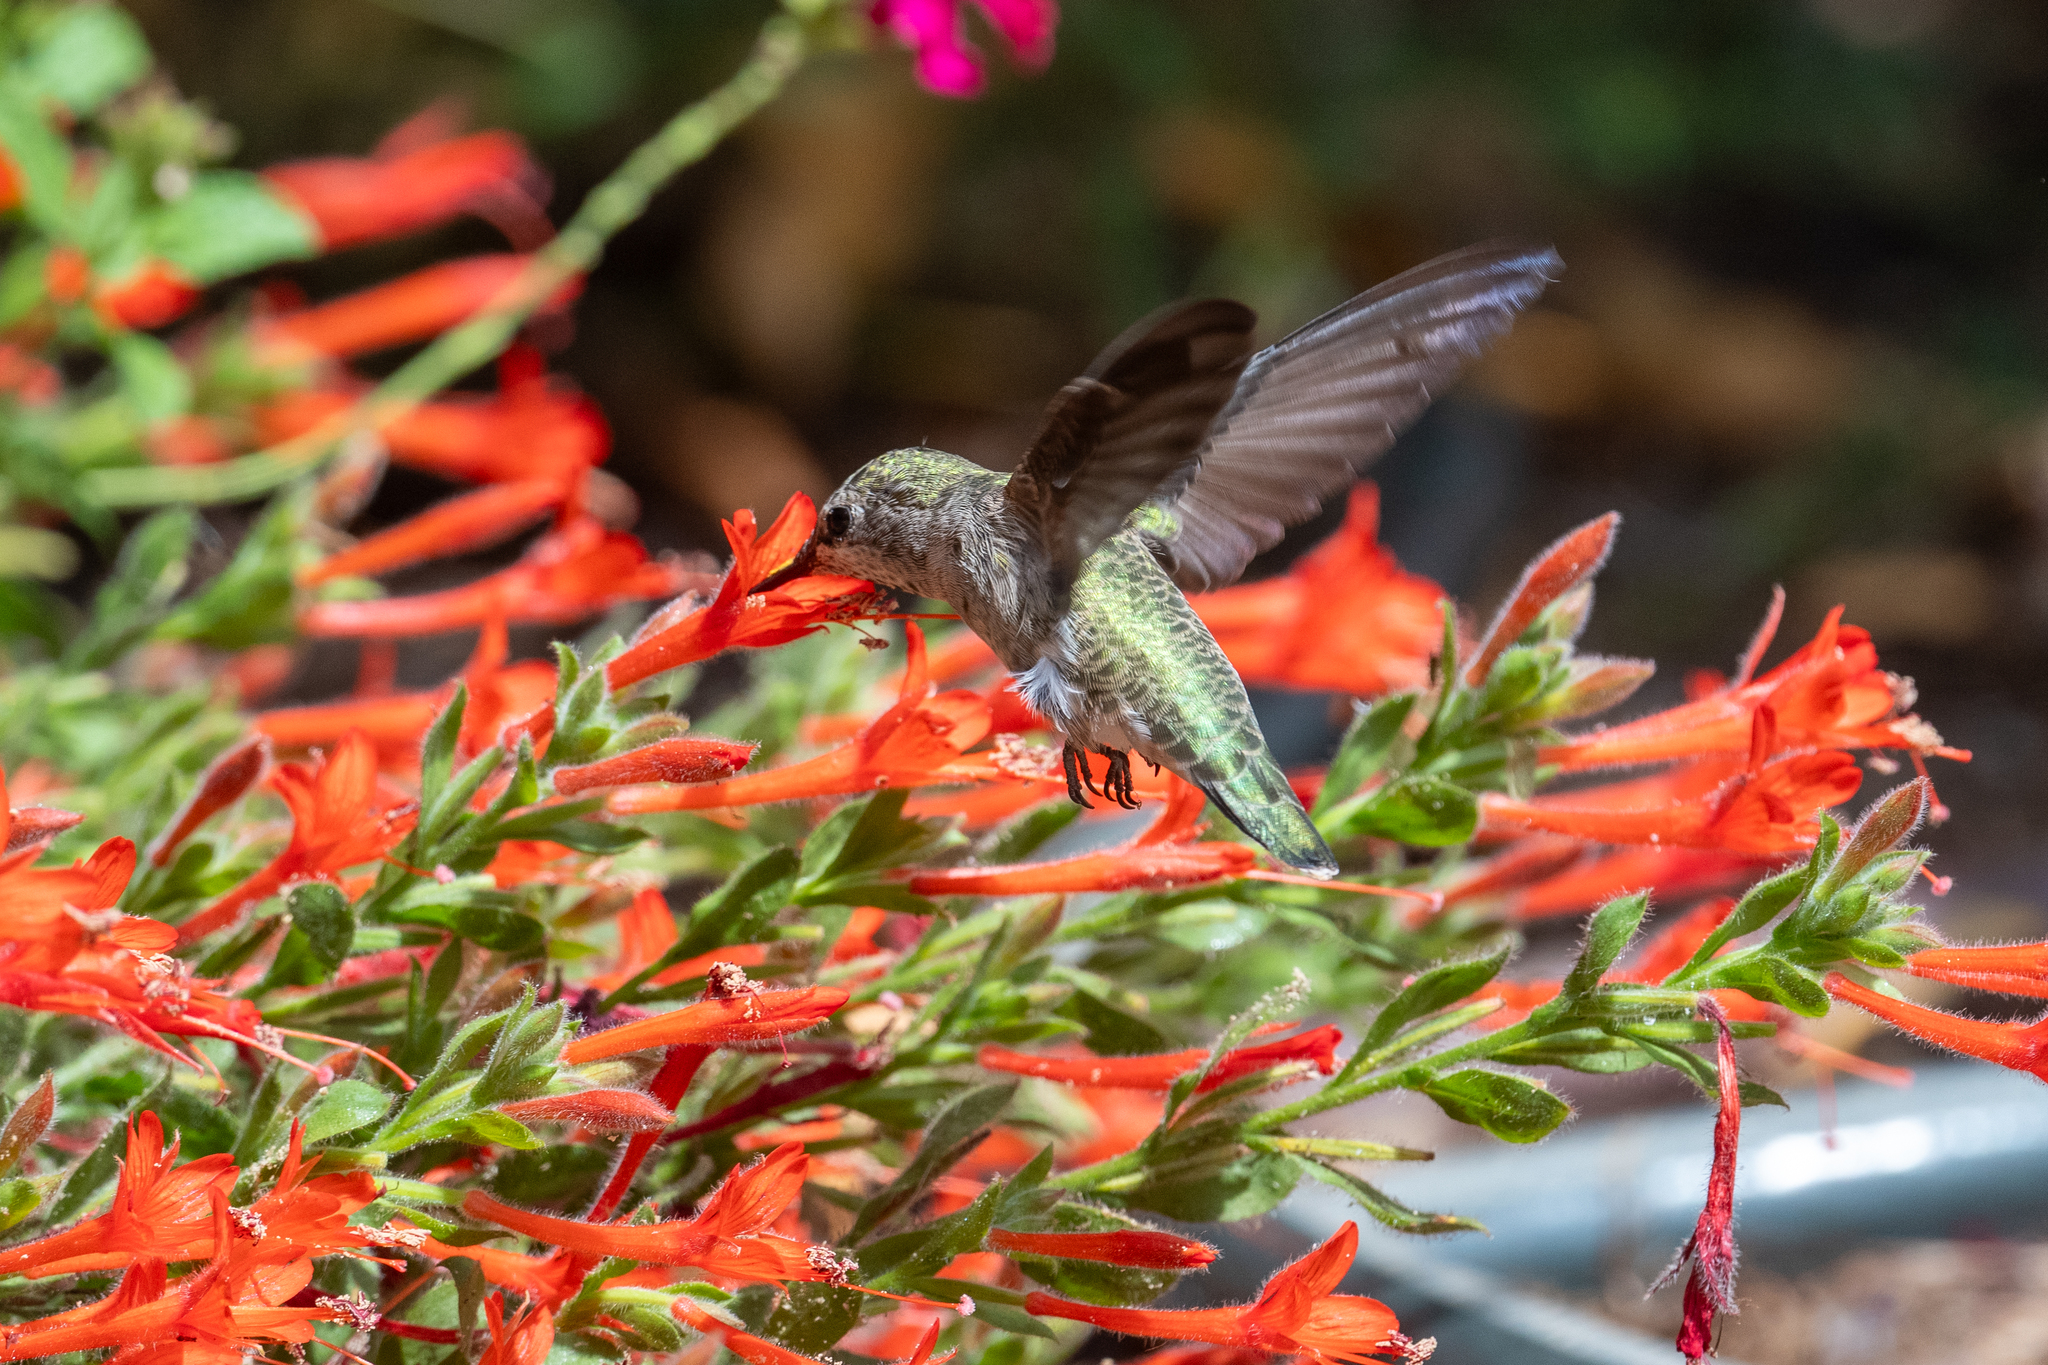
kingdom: Animalia
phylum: Chordata
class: Aves
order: Apodiformes
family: Trochilidae
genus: Calypte
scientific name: Calypte anna
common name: Anna's hummingbird
